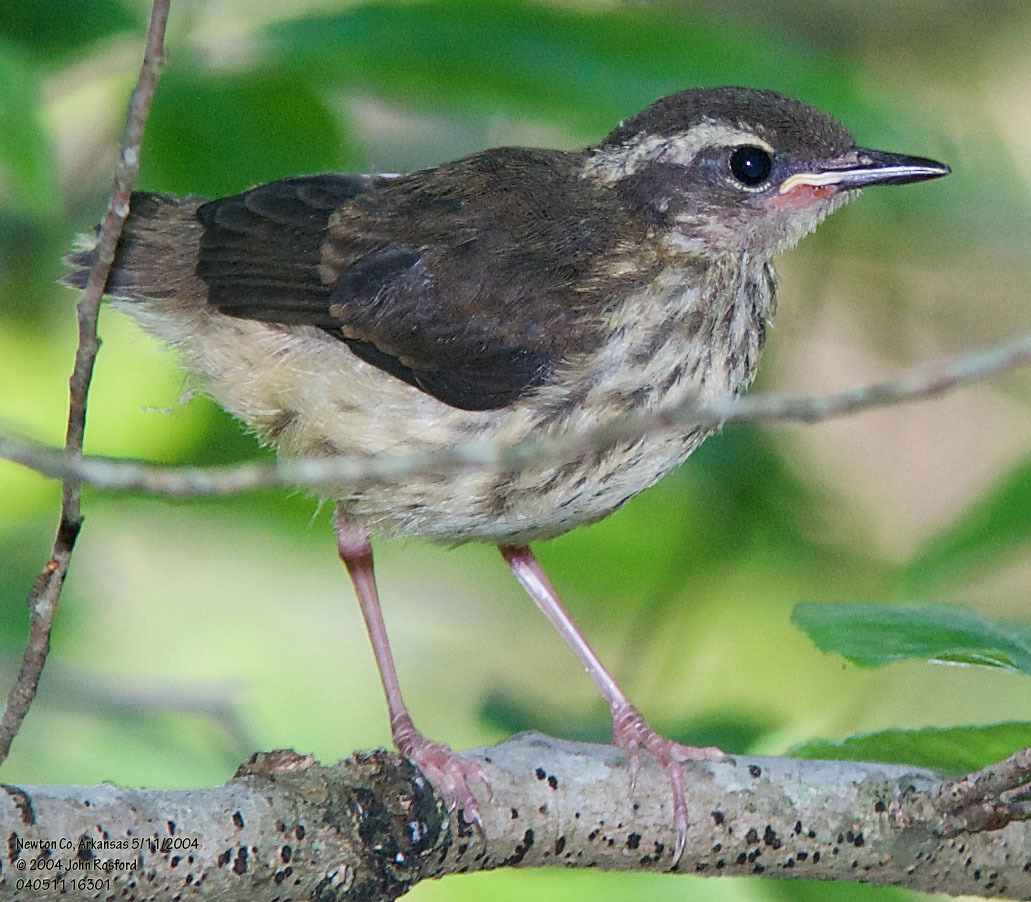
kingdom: Animalia
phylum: Chordata
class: Aves
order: Passeriformes
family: Parulidae
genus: Parkesia
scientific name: Parkesia motacilla
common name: Louisiana waterthrush
